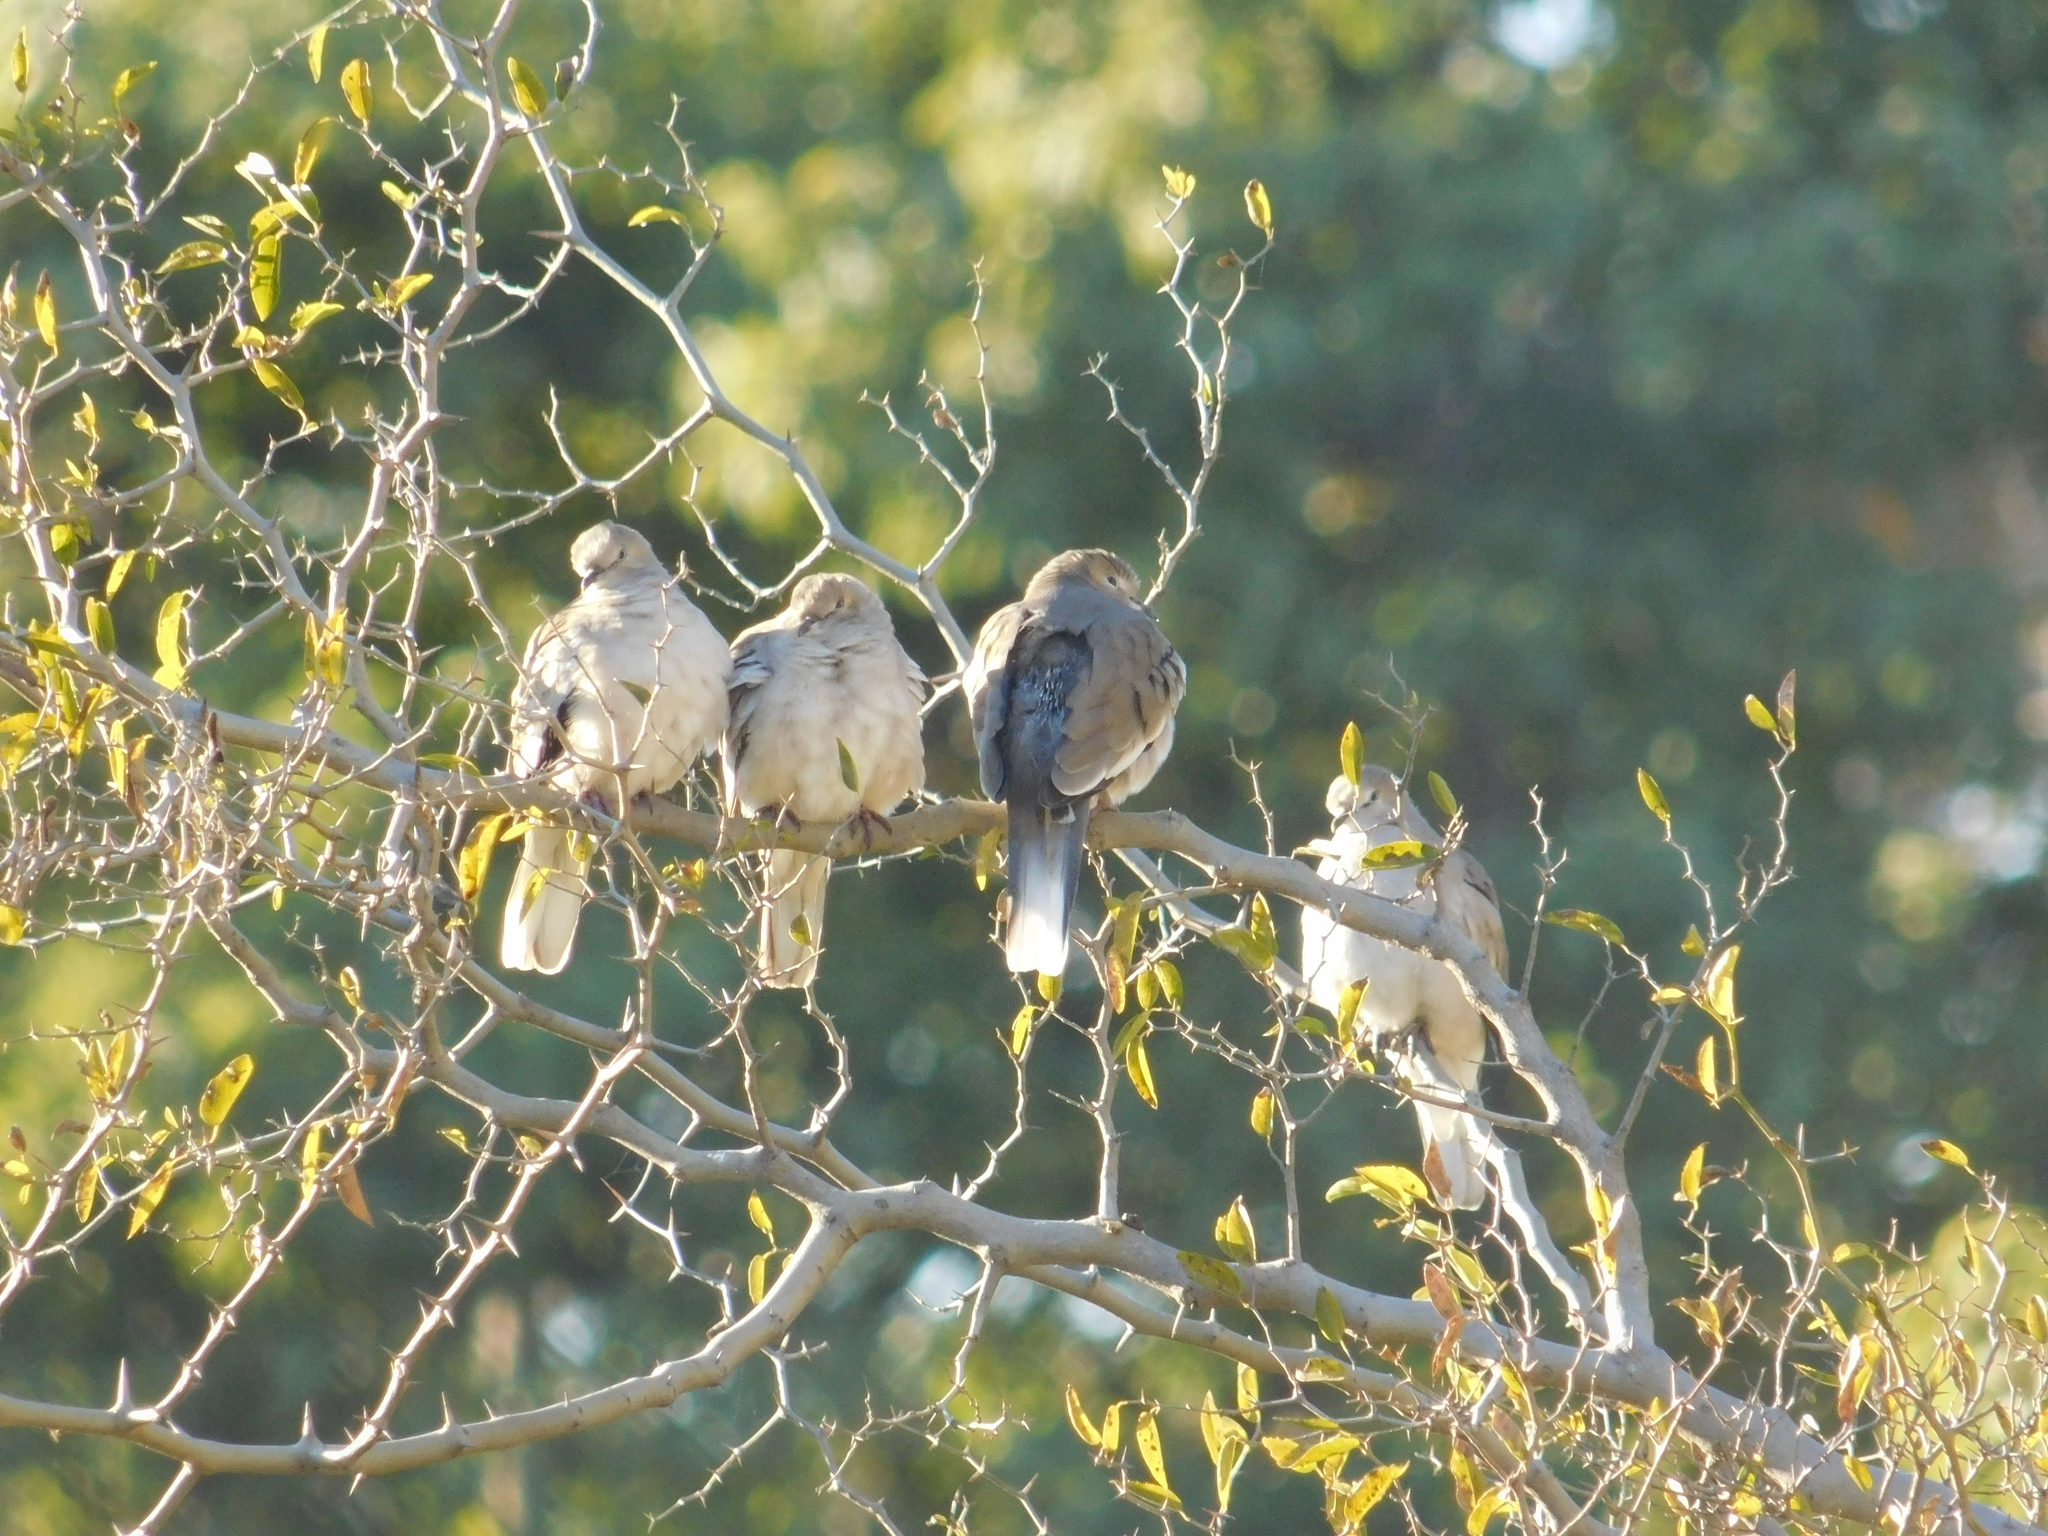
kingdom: Animalia
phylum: Chordata
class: Aves
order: Columbiformes
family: Columbidae
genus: Columbina
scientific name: Columbina picui
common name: Picui ground dove
